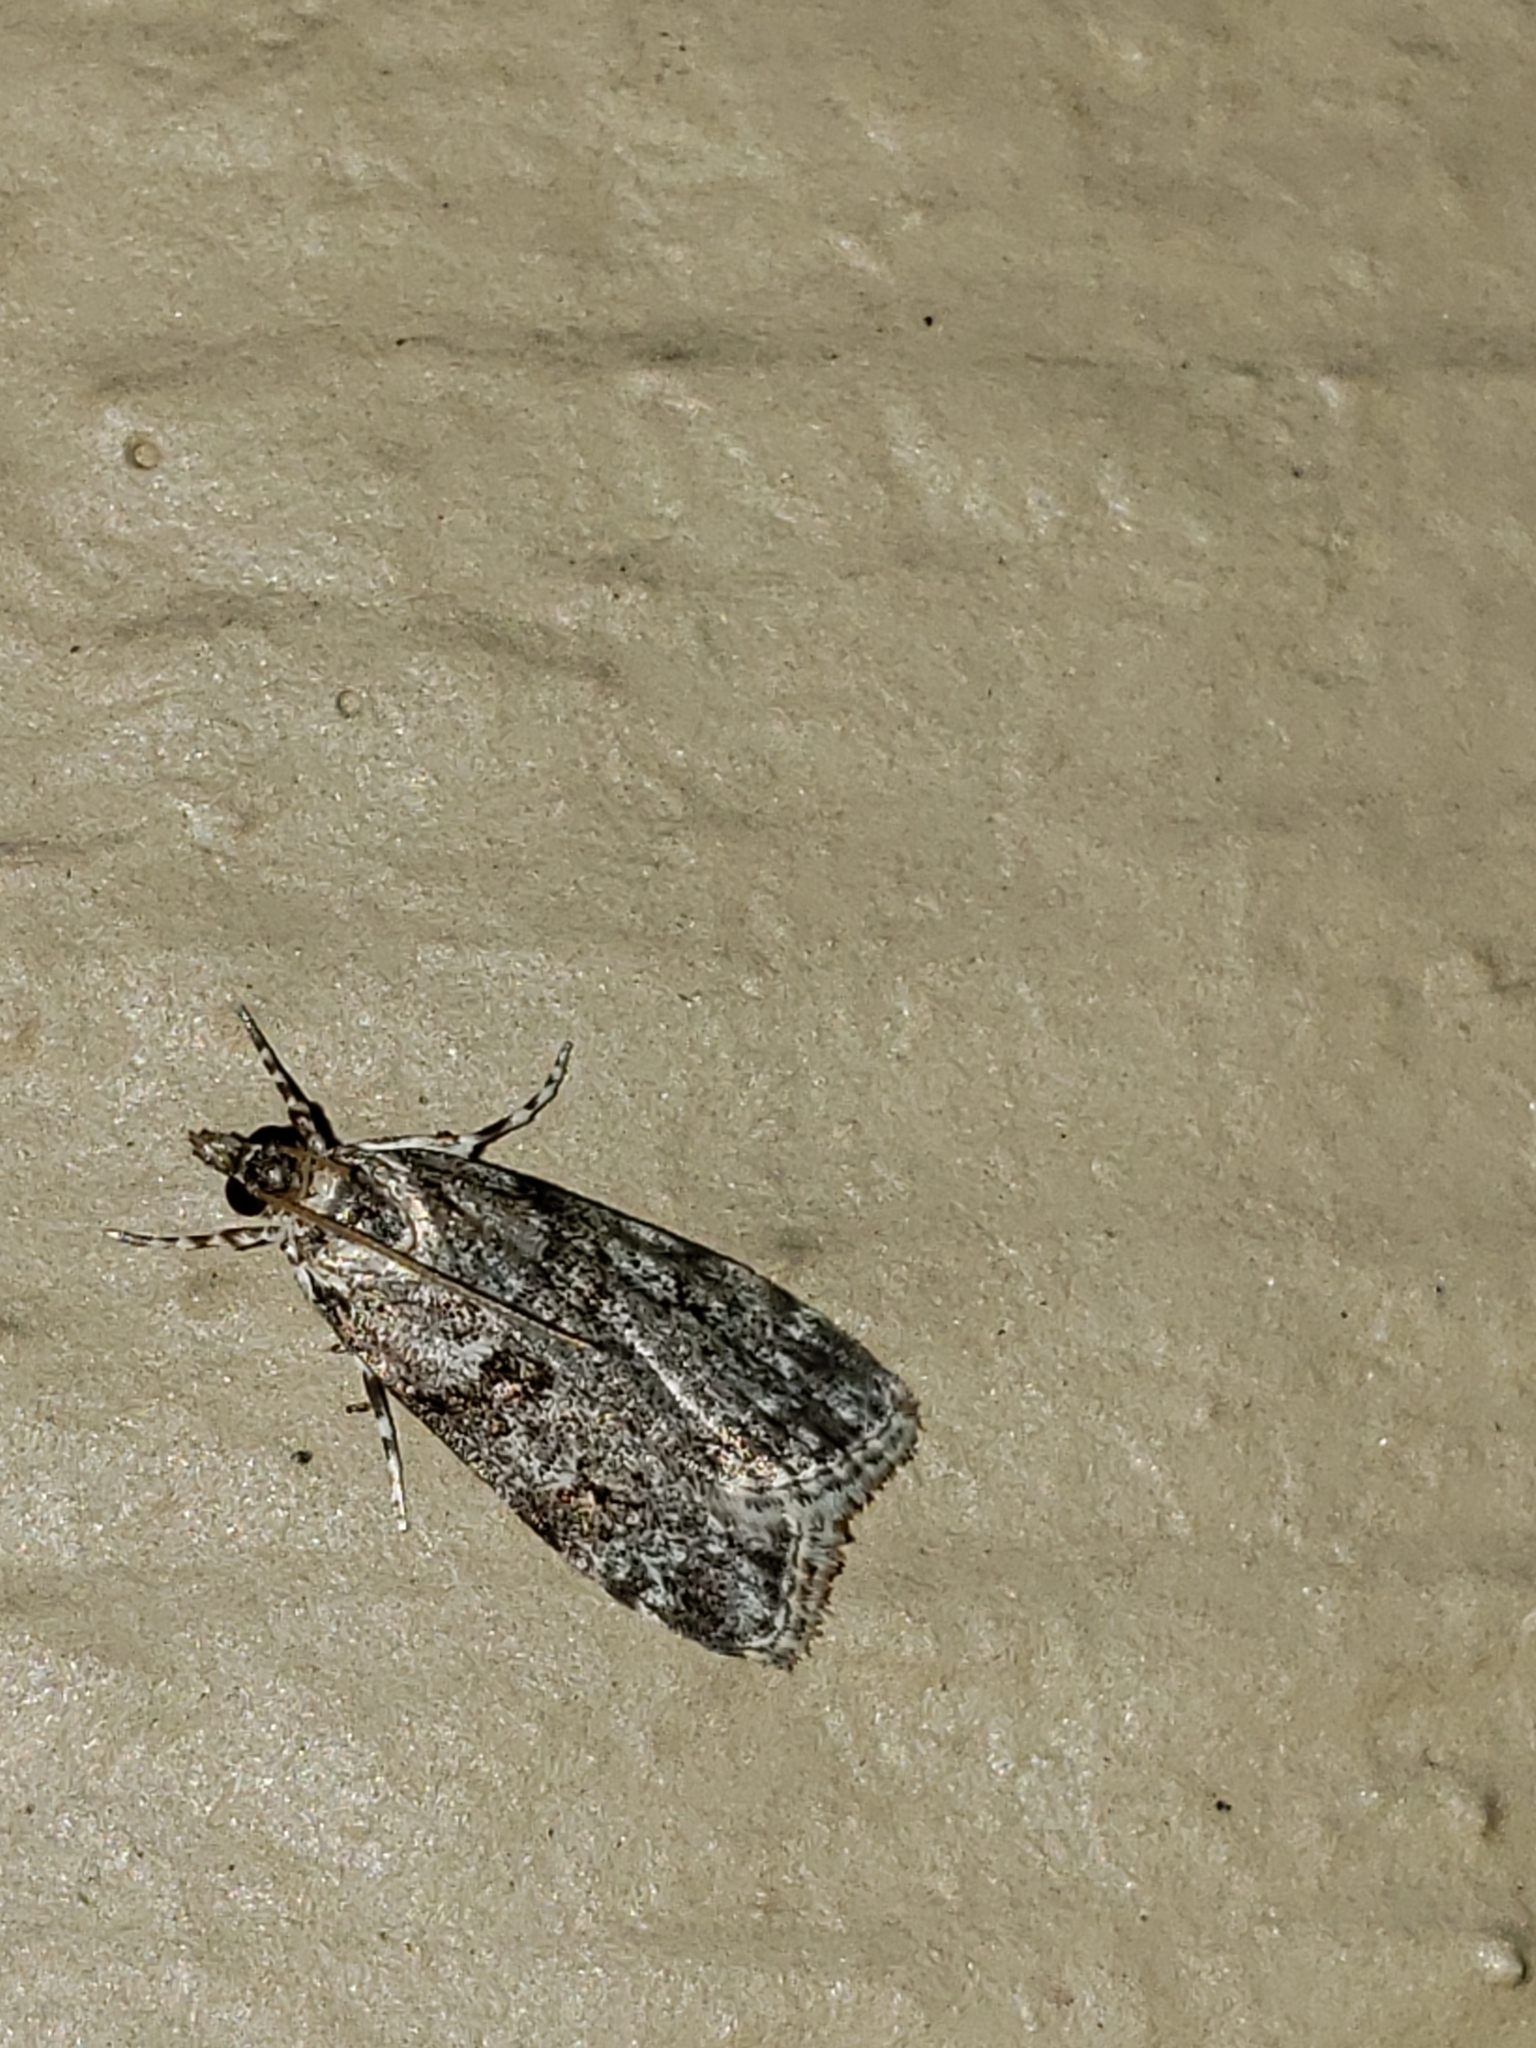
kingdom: Animalia
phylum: Arthropoda
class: Insecta
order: Lepidoptera
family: Crambidae
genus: Scoparia
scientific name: Scoparia biplagialis
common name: Double-striped scoparia moth
